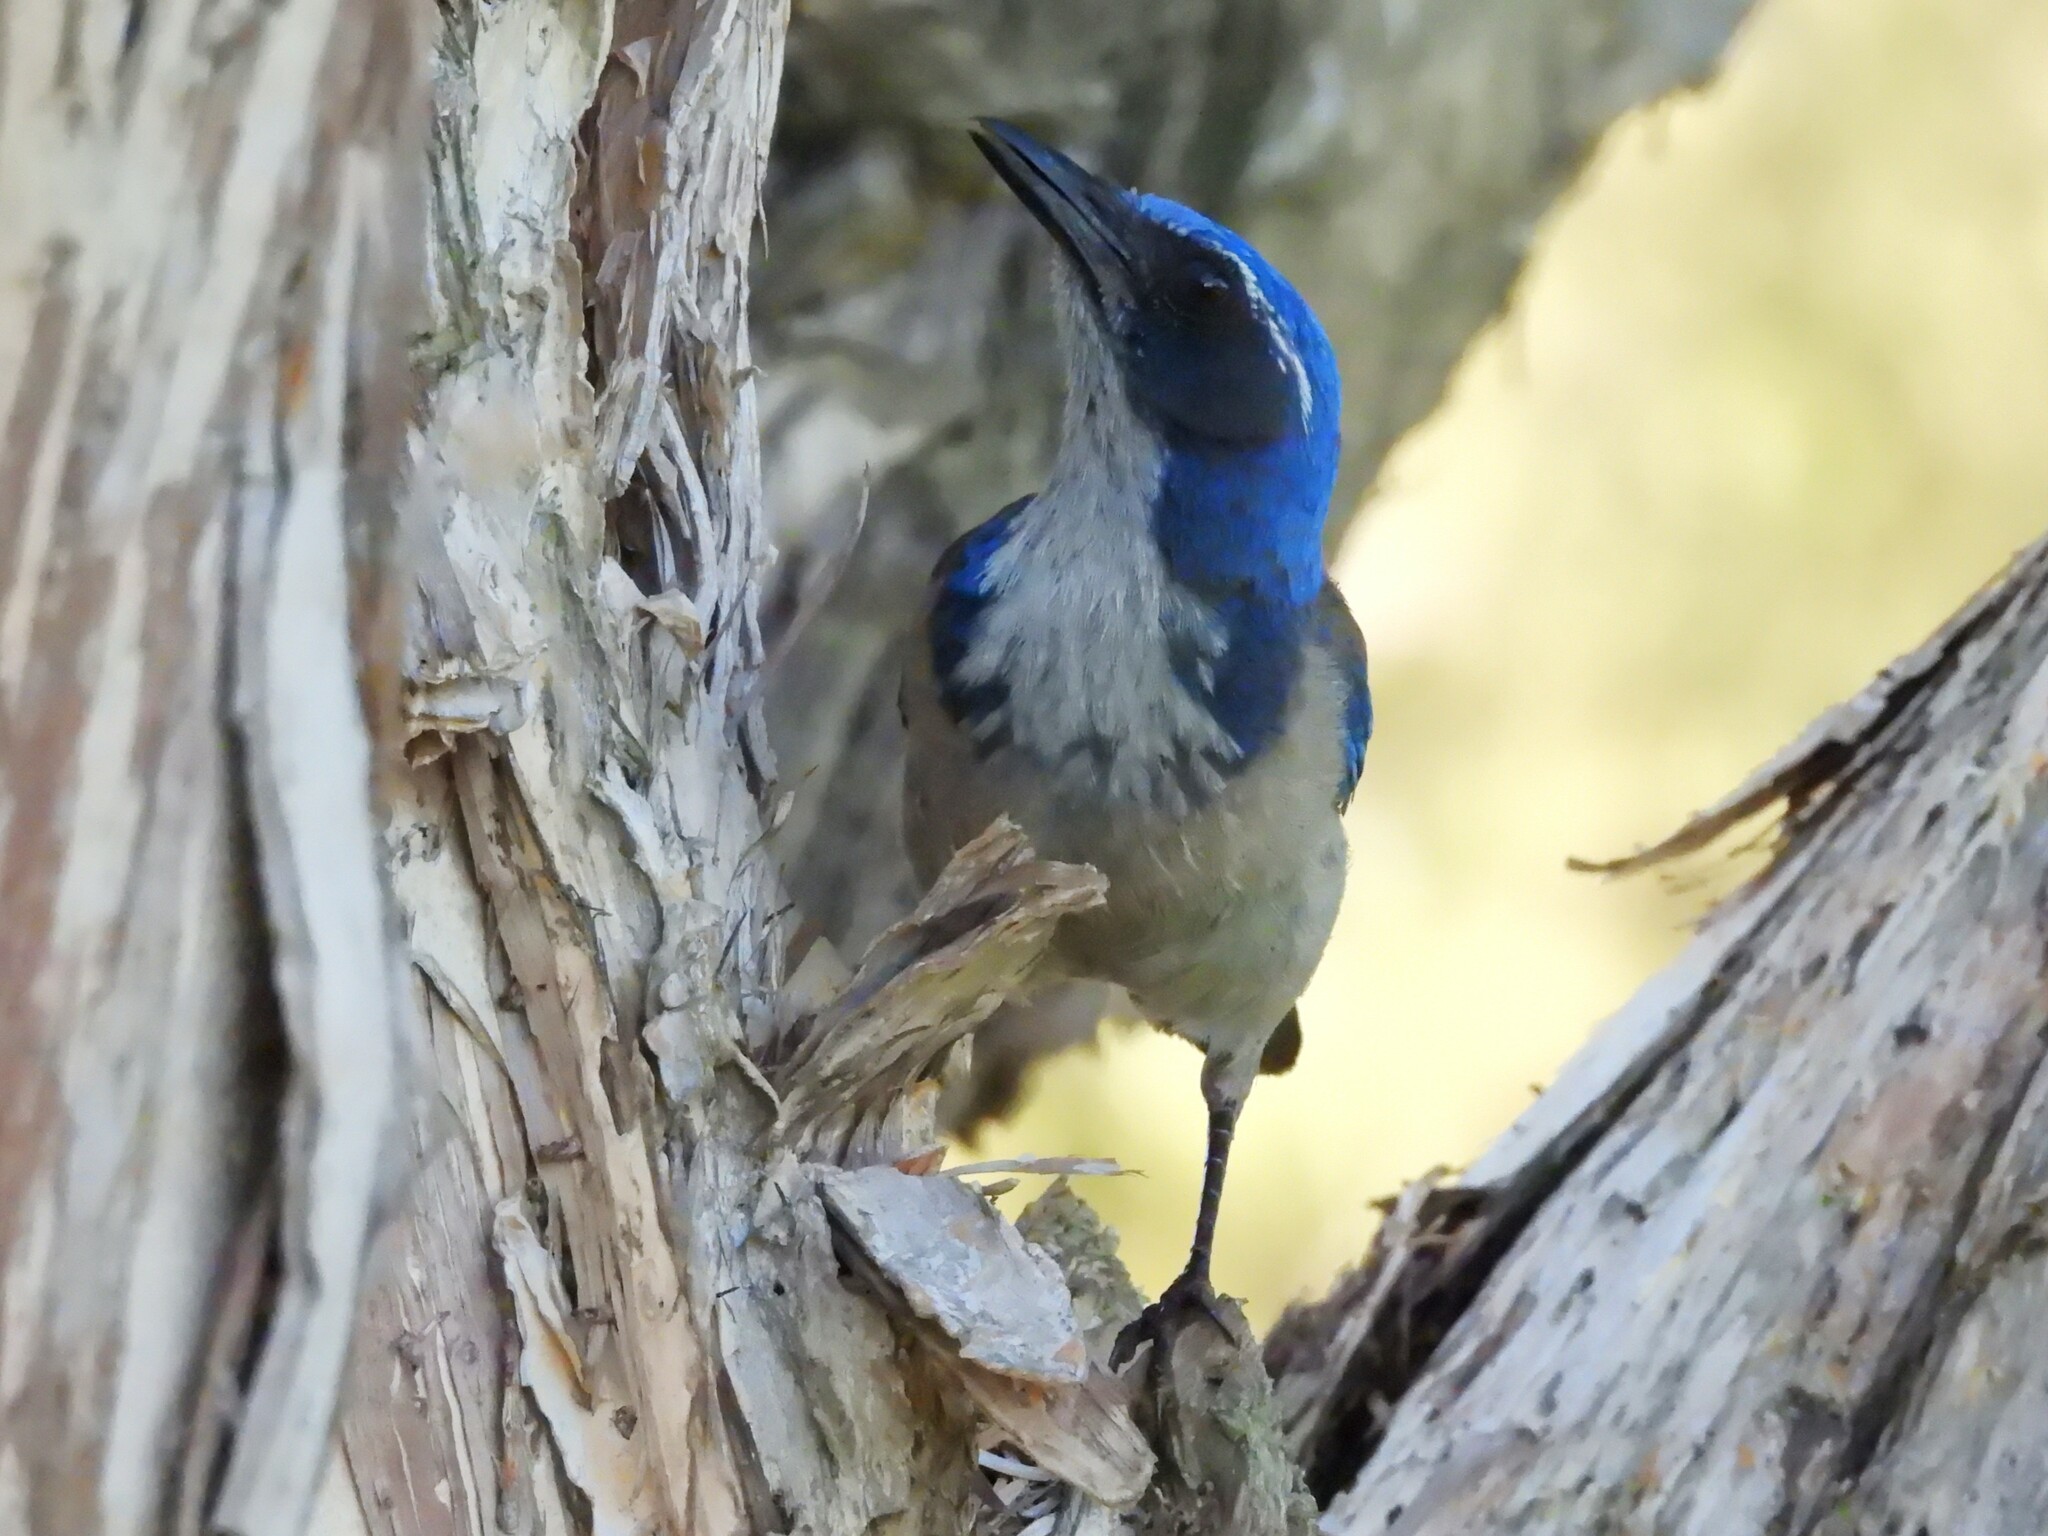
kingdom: Animalia
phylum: Chordata
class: Aves
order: Passeriformes
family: Corvidae
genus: Aphelocoma
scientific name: Aphelocoma californica
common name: California scrub-jay
